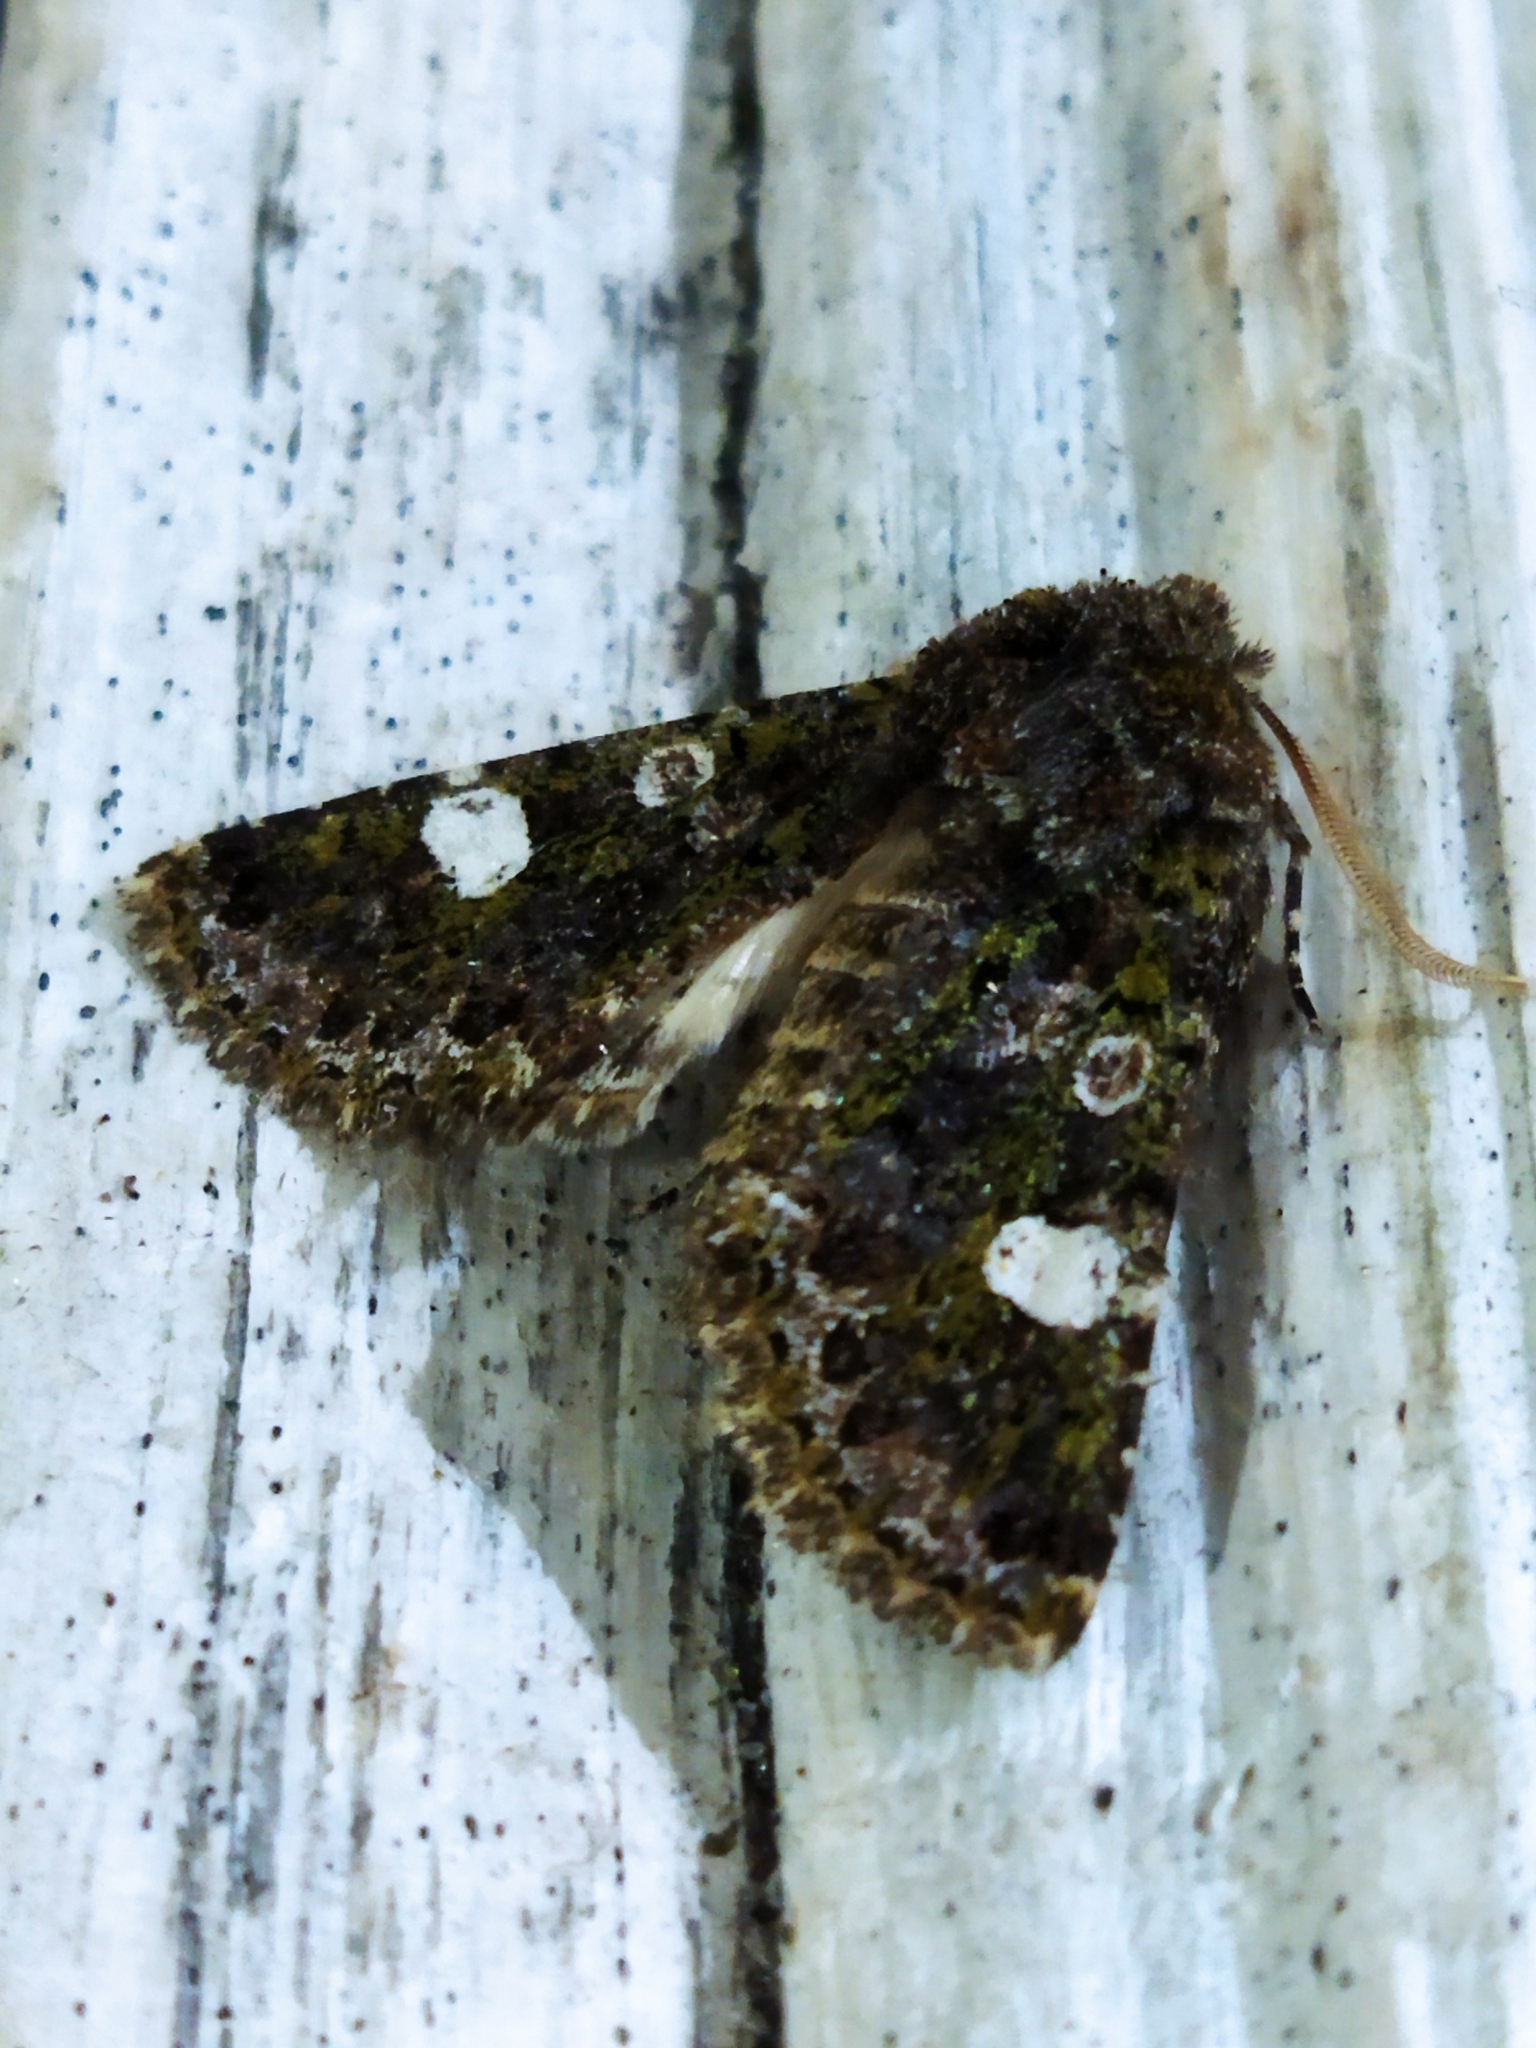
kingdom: Animalia
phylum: Arthropoda
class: Insecta
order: Lepidoptera
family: Noctuidae
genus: Valeria
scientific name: Valeria oleagina
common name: Green-brindled dot
